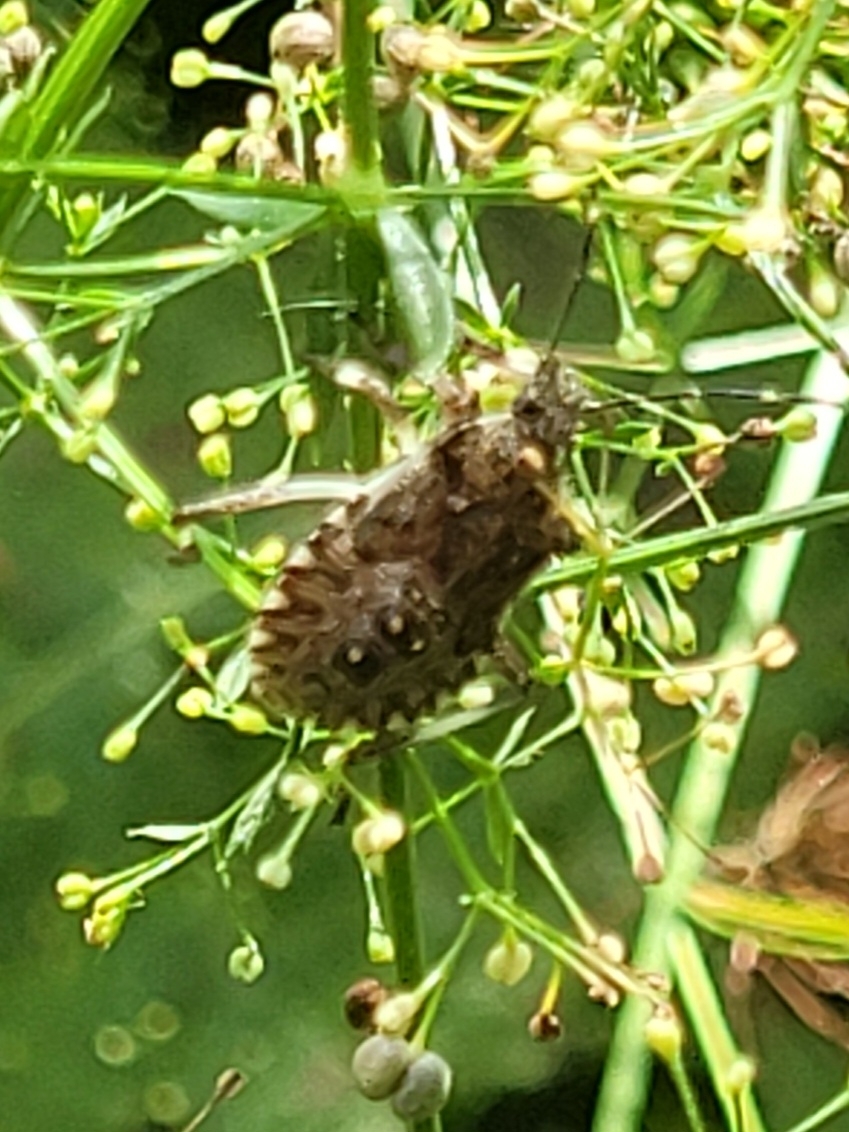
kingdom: Animalia
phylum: Arthropoda
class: Insecta
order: Hemiptera
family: Pentatomidae
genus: Halyomorpha
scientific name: Halyomorpha halys
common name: Brown marmorated stink bug
